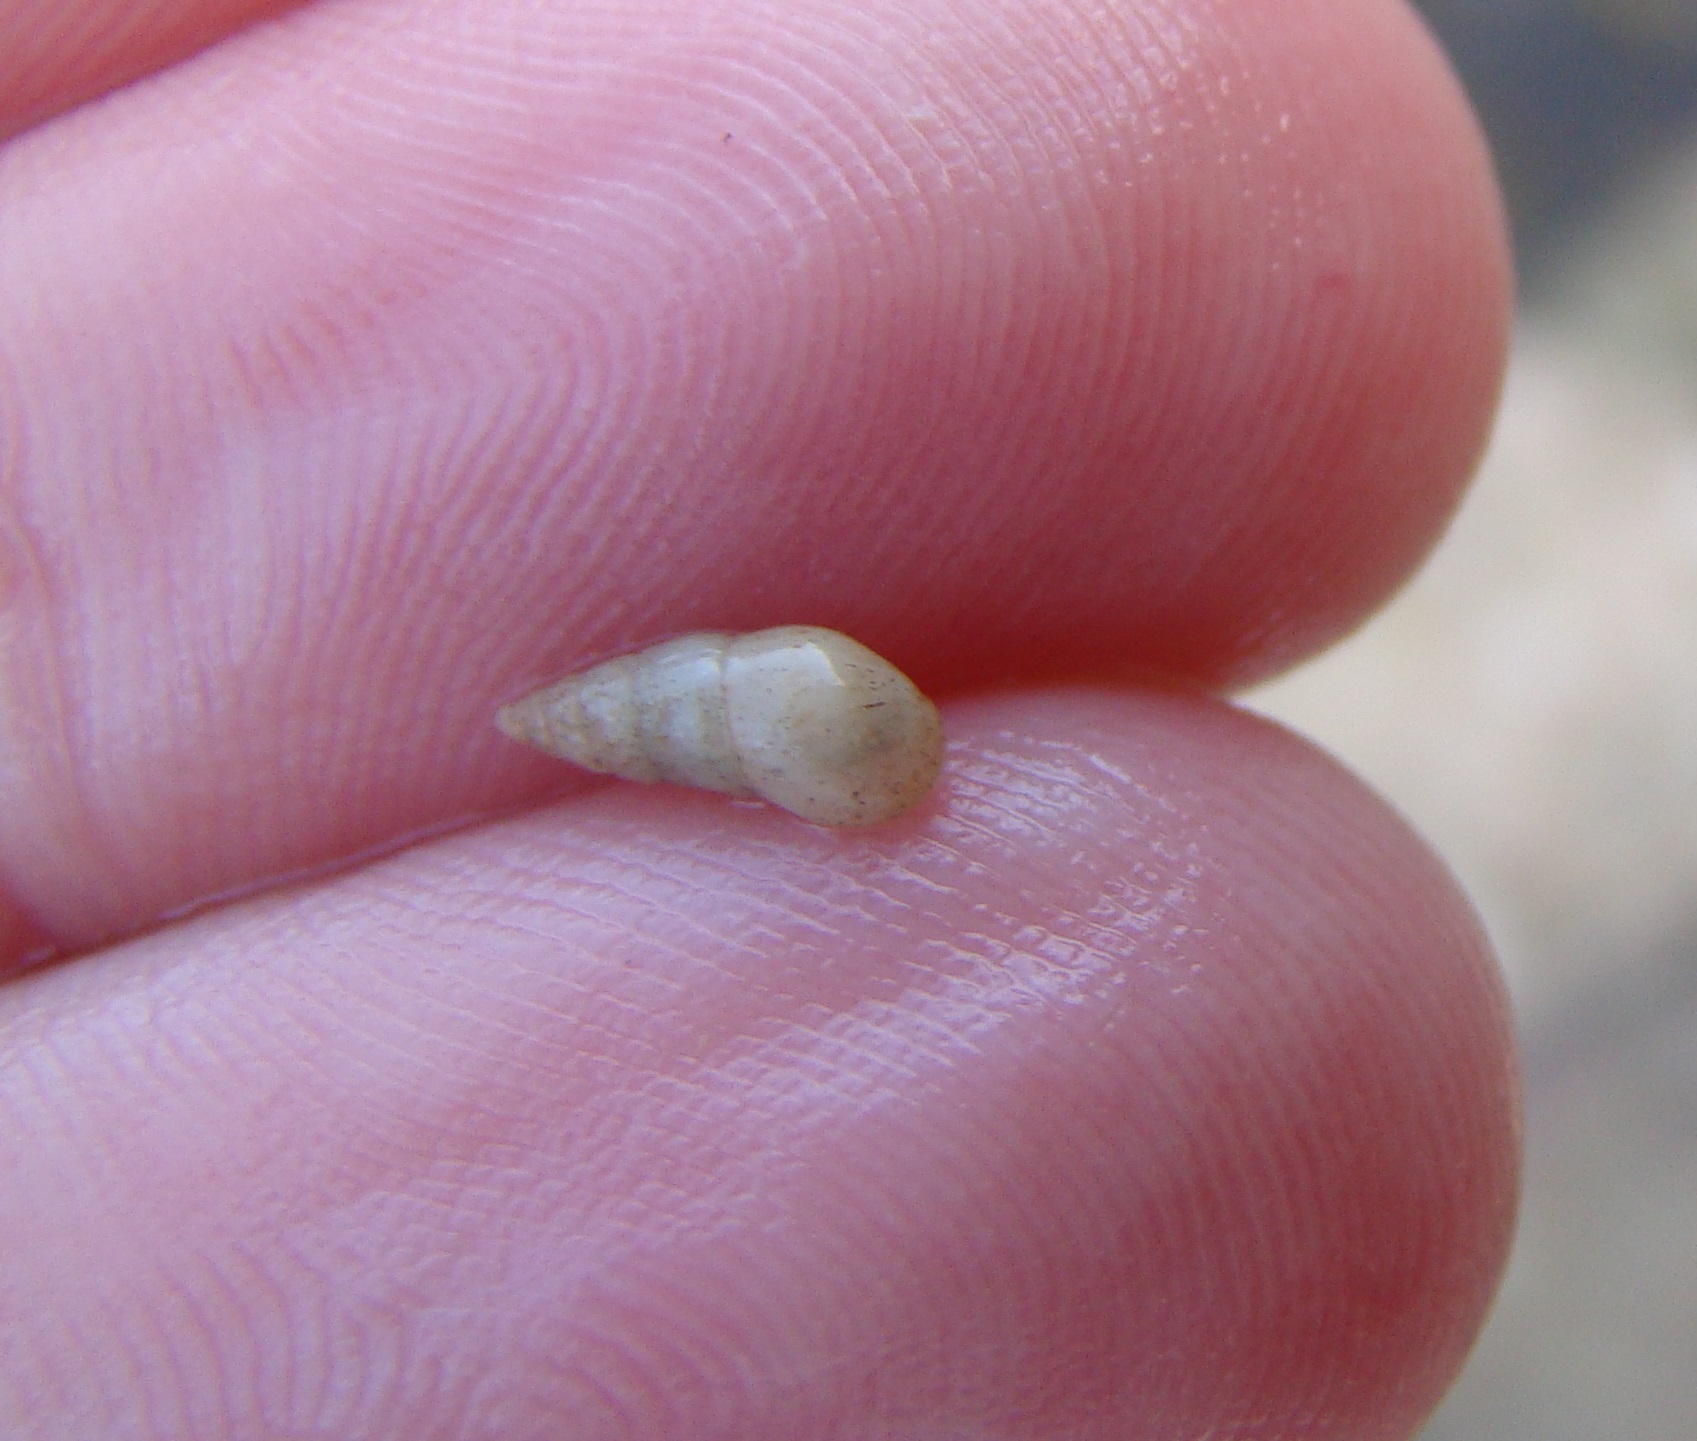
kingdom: Animalia
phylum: Mollusca
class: Gastropoda
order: Littorinimorpha
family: Rissoinidae
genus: Rissoina
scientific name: Rissoina chathamensis
